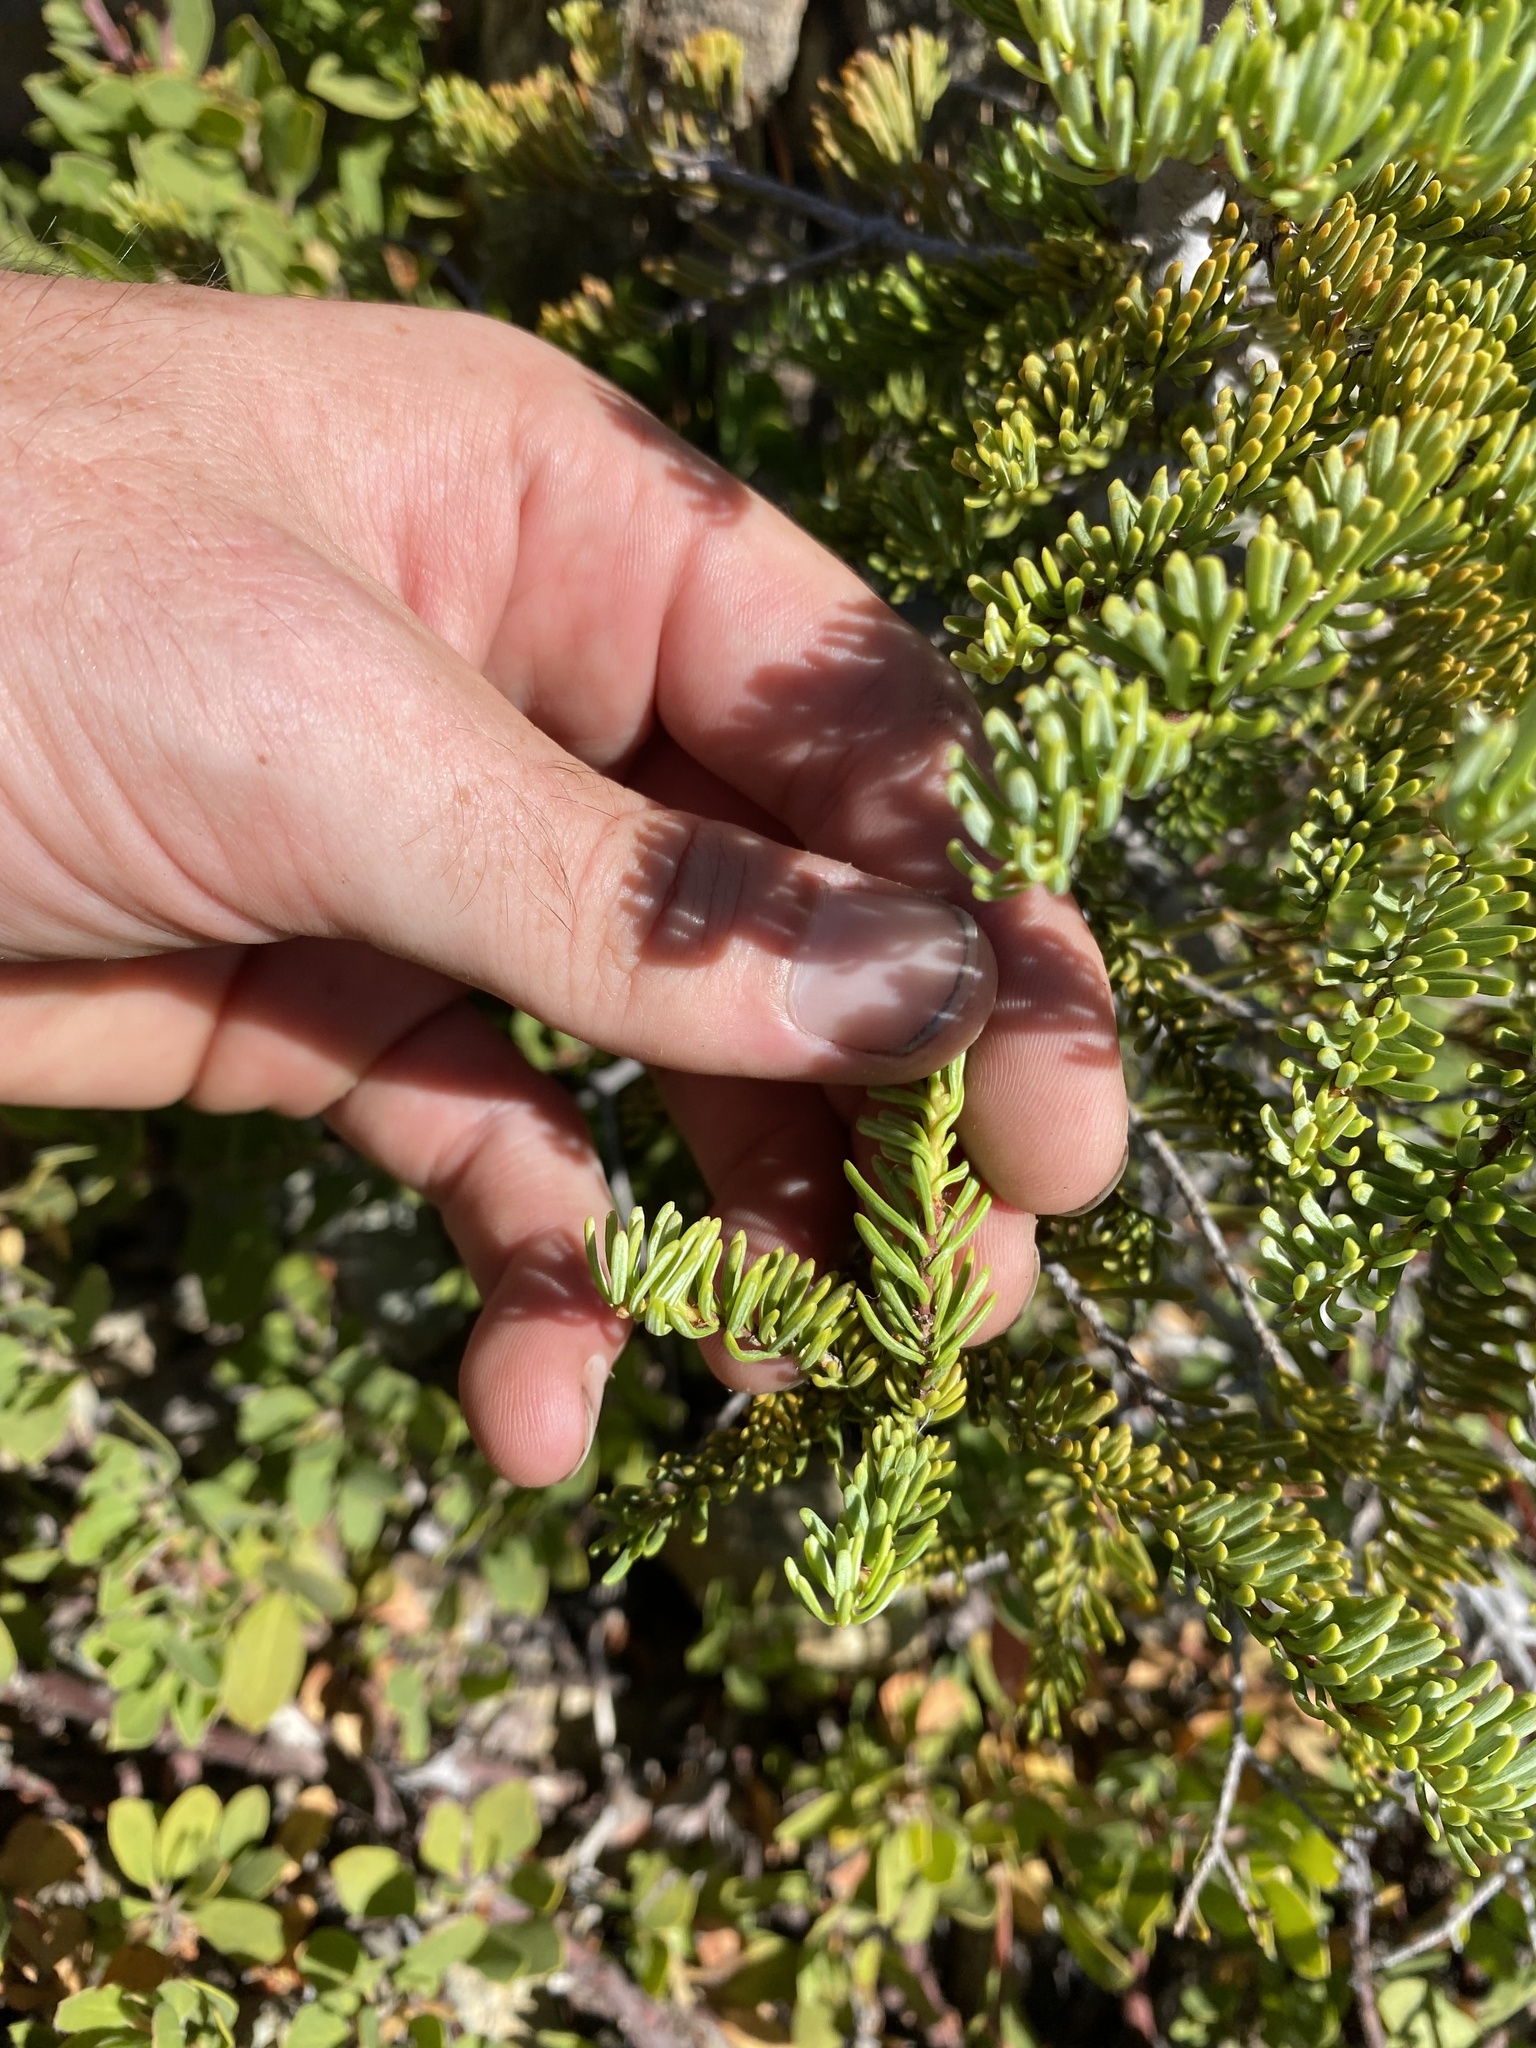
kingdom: Plantae
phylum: Tracheophyta
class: Pinopsida
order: Pinales
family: Pinaceae
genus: Abies
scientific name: Abies procera
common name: Noble fir
